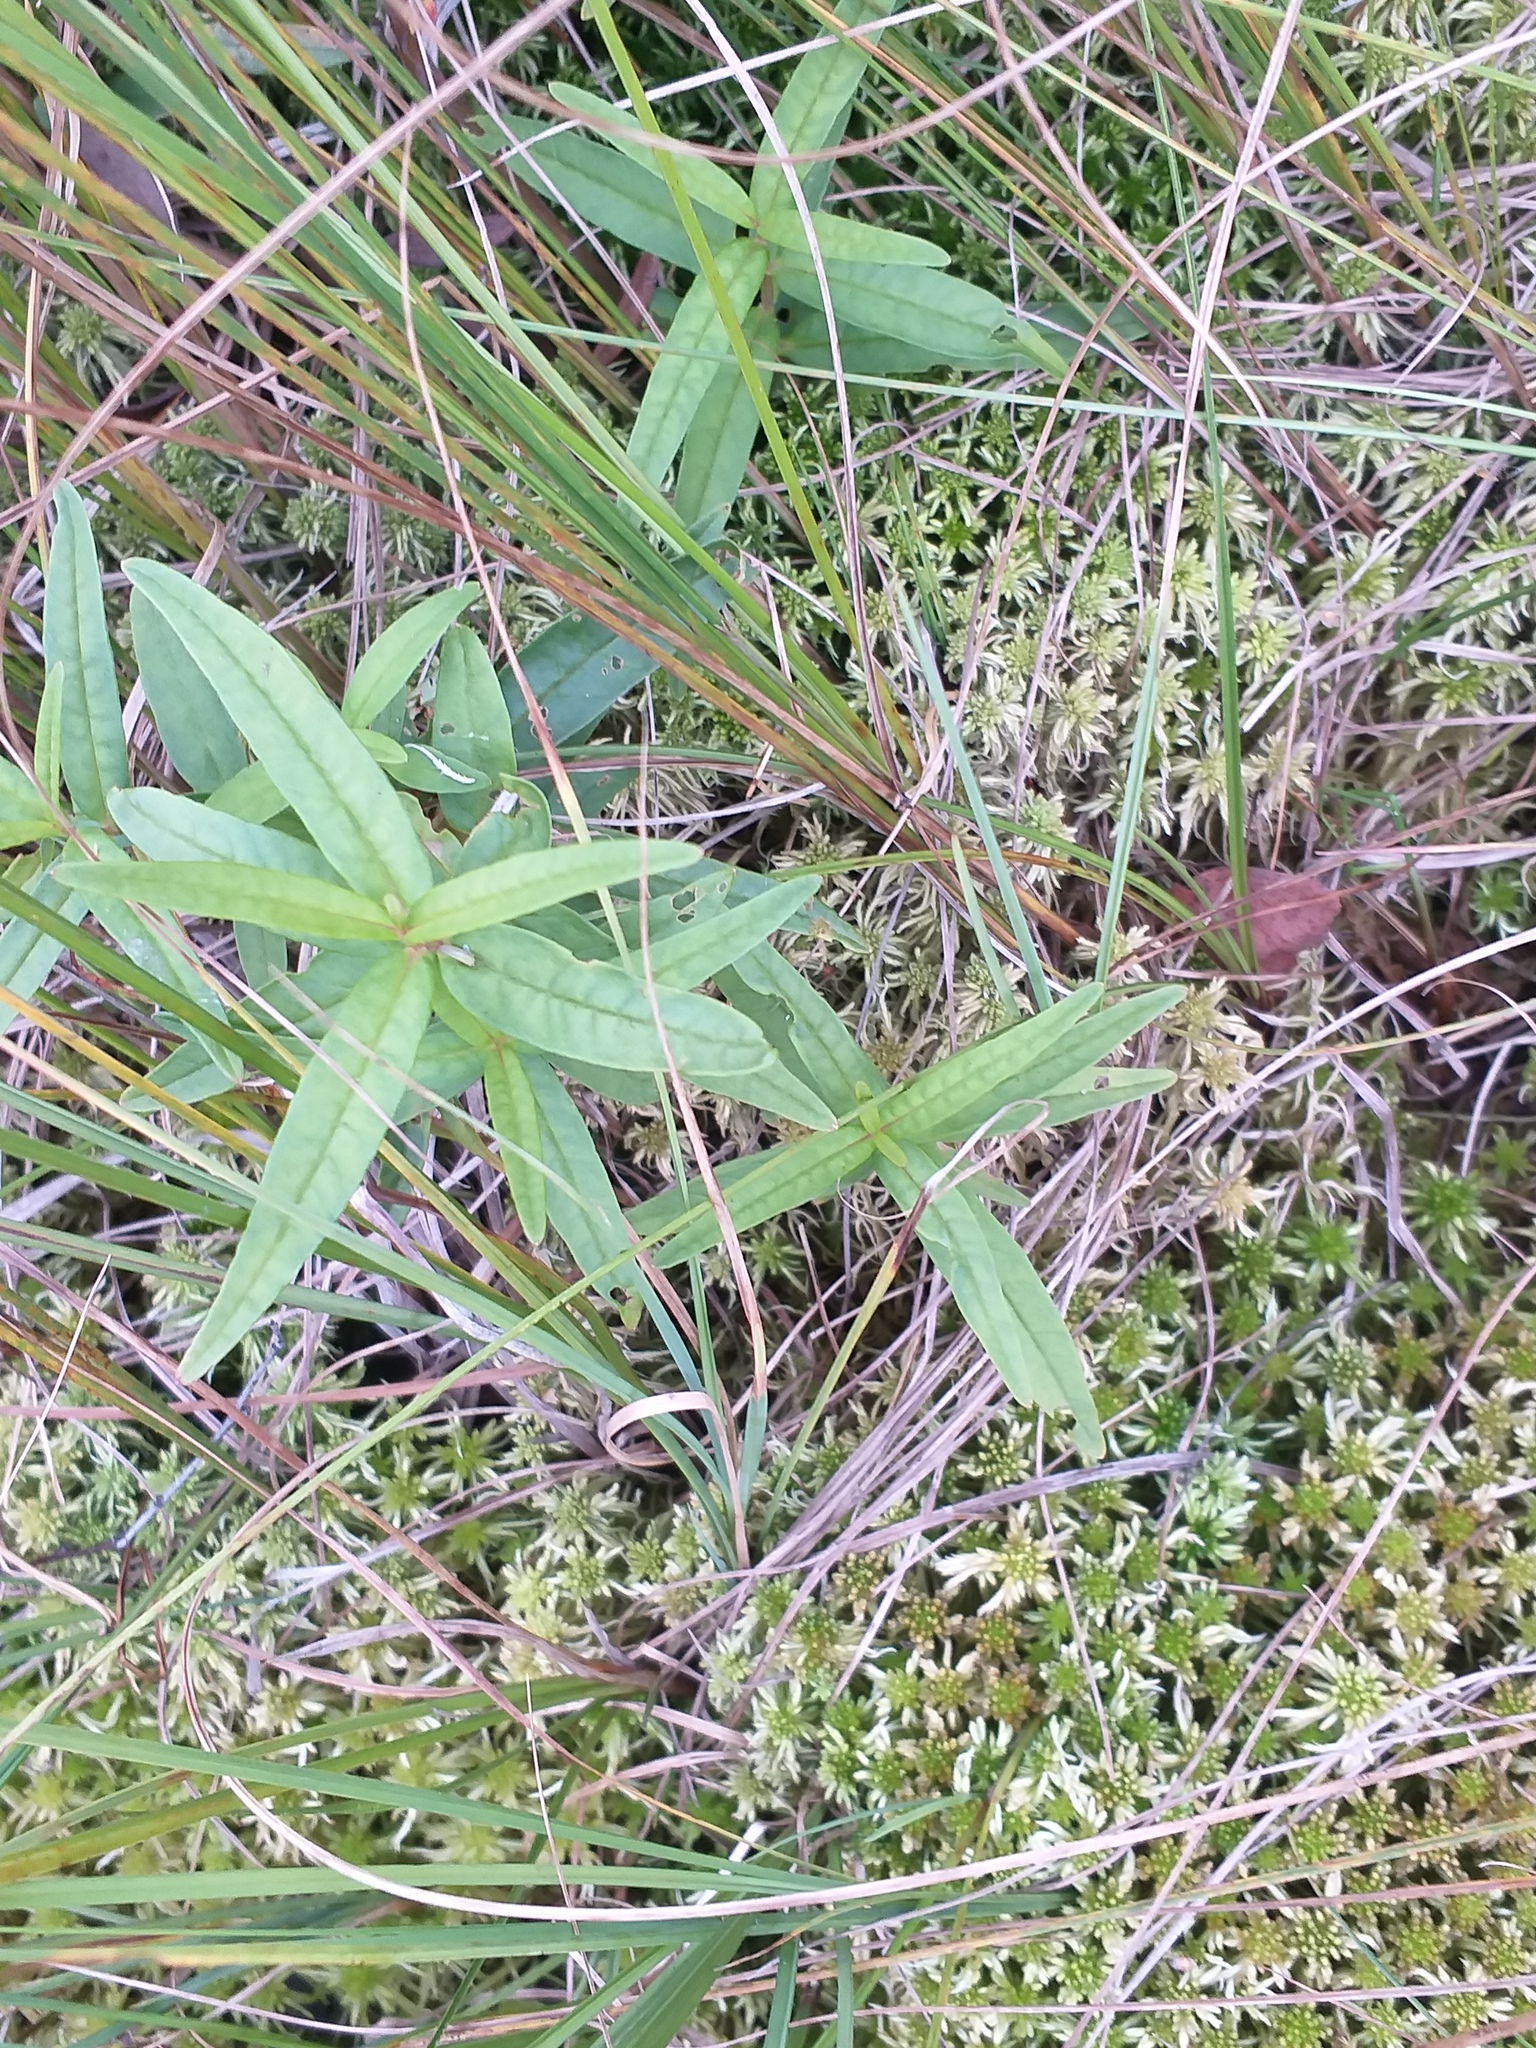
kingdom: Plantae
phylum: Tracheophyta
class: Magnoliopsida
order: Ericales
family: Primulaceae
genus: Lysimachia
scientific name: Lysimachia thyrsiflora
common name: Tufted loosestrife
